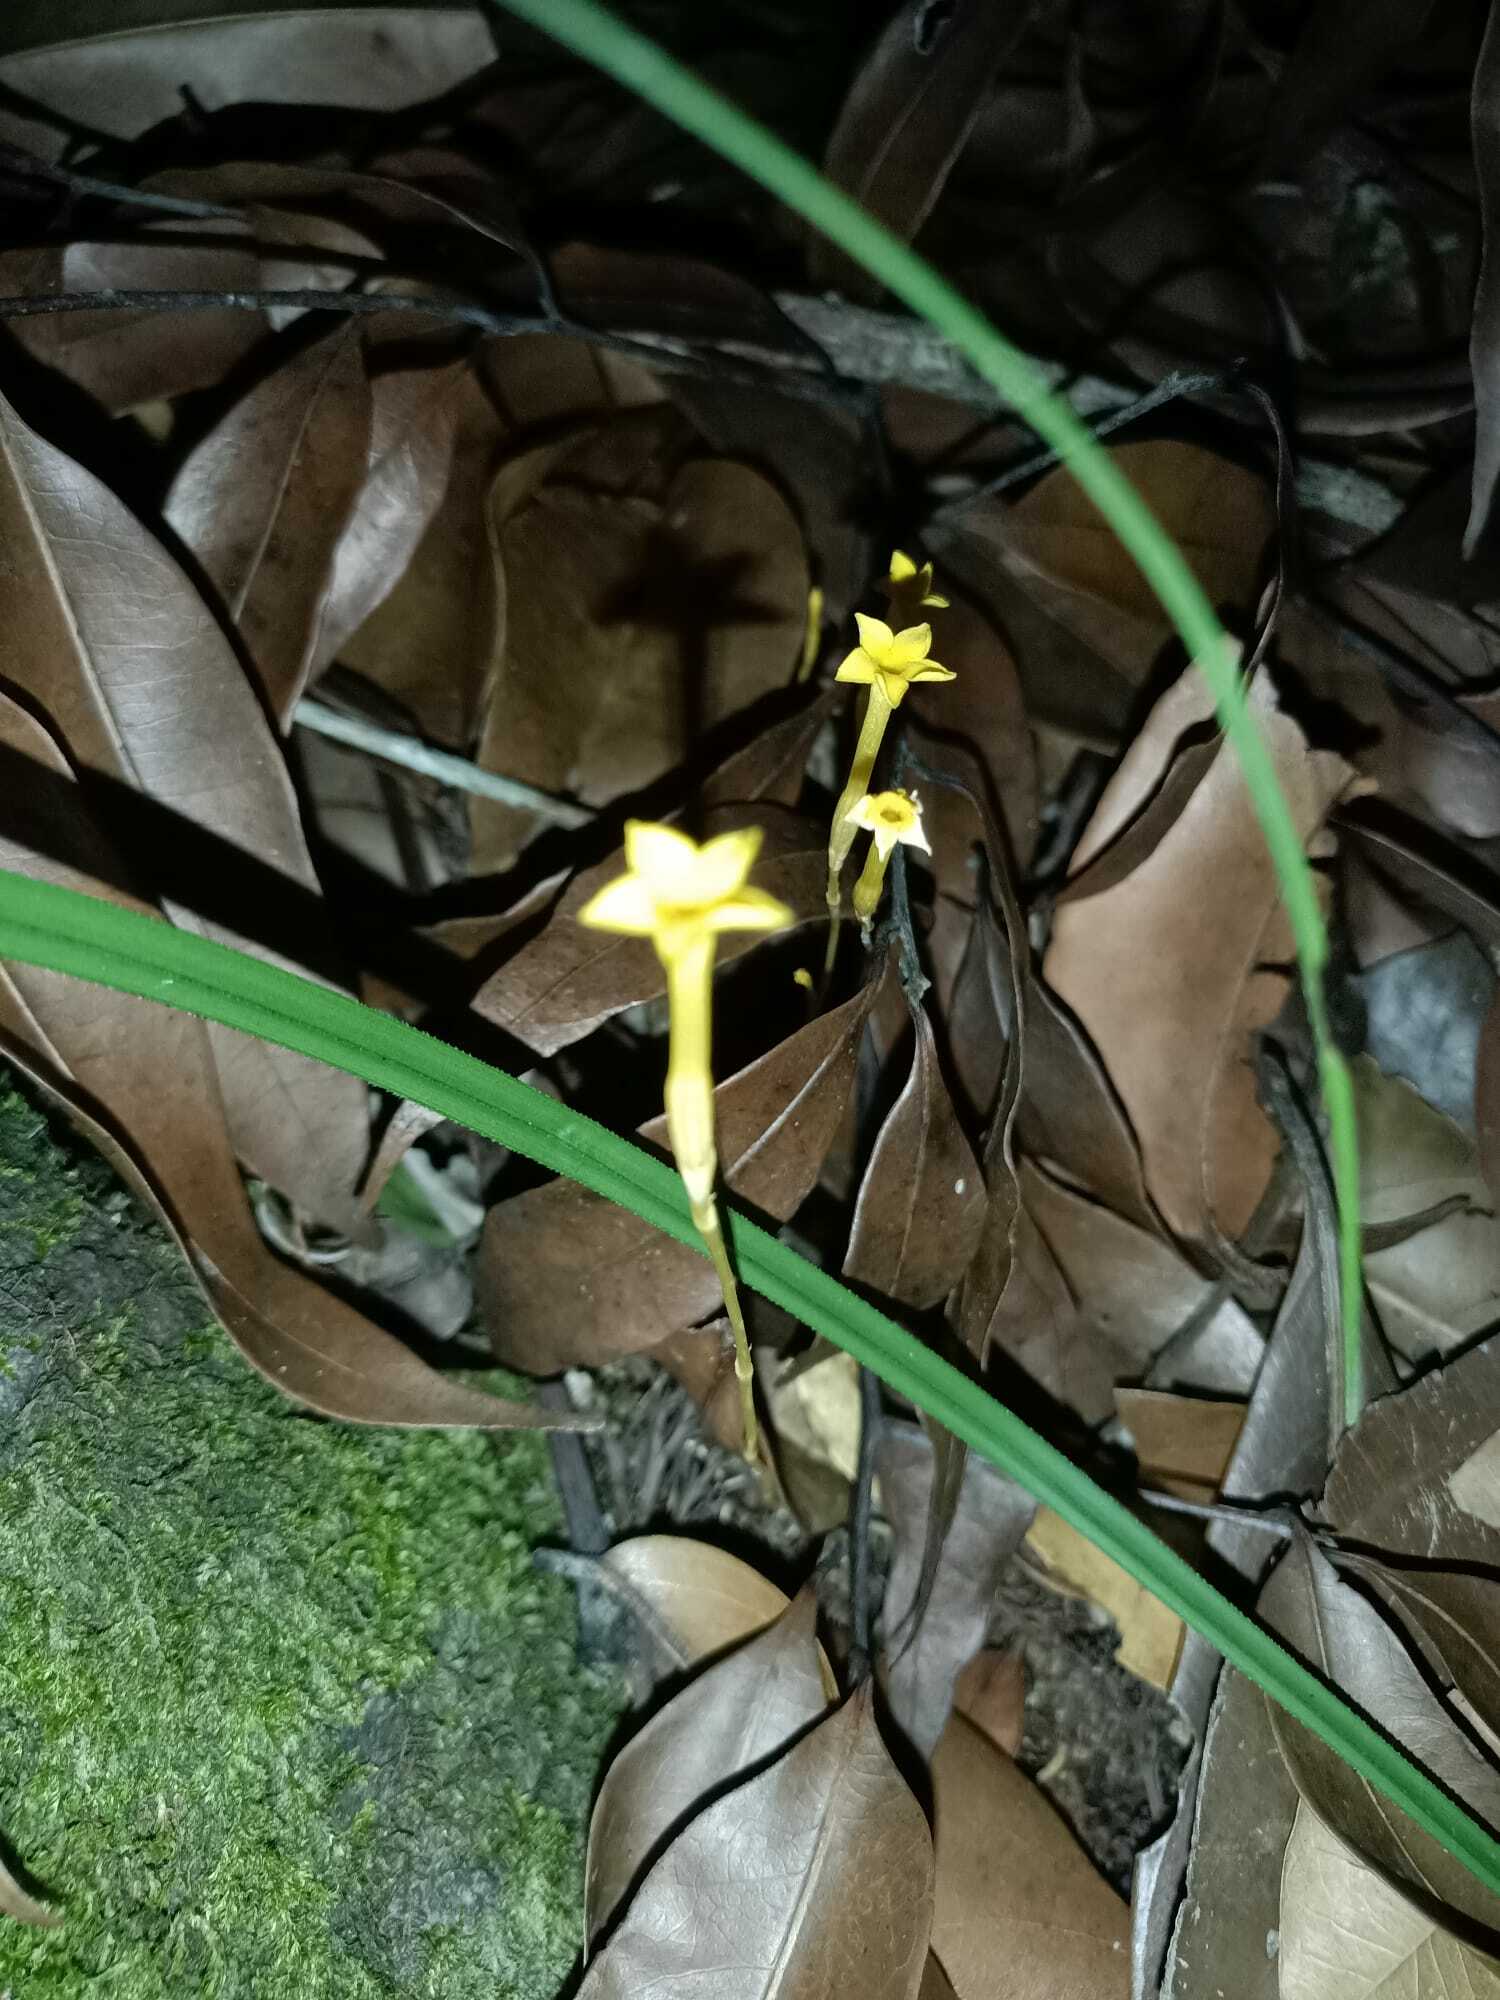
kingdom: Plantae
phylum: Tracheophyta
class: Magnoliopsida
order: Gentianales
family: Gentianaceae
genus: Voyria
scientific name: Voyria aphylla
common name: Leafless ghost plant
